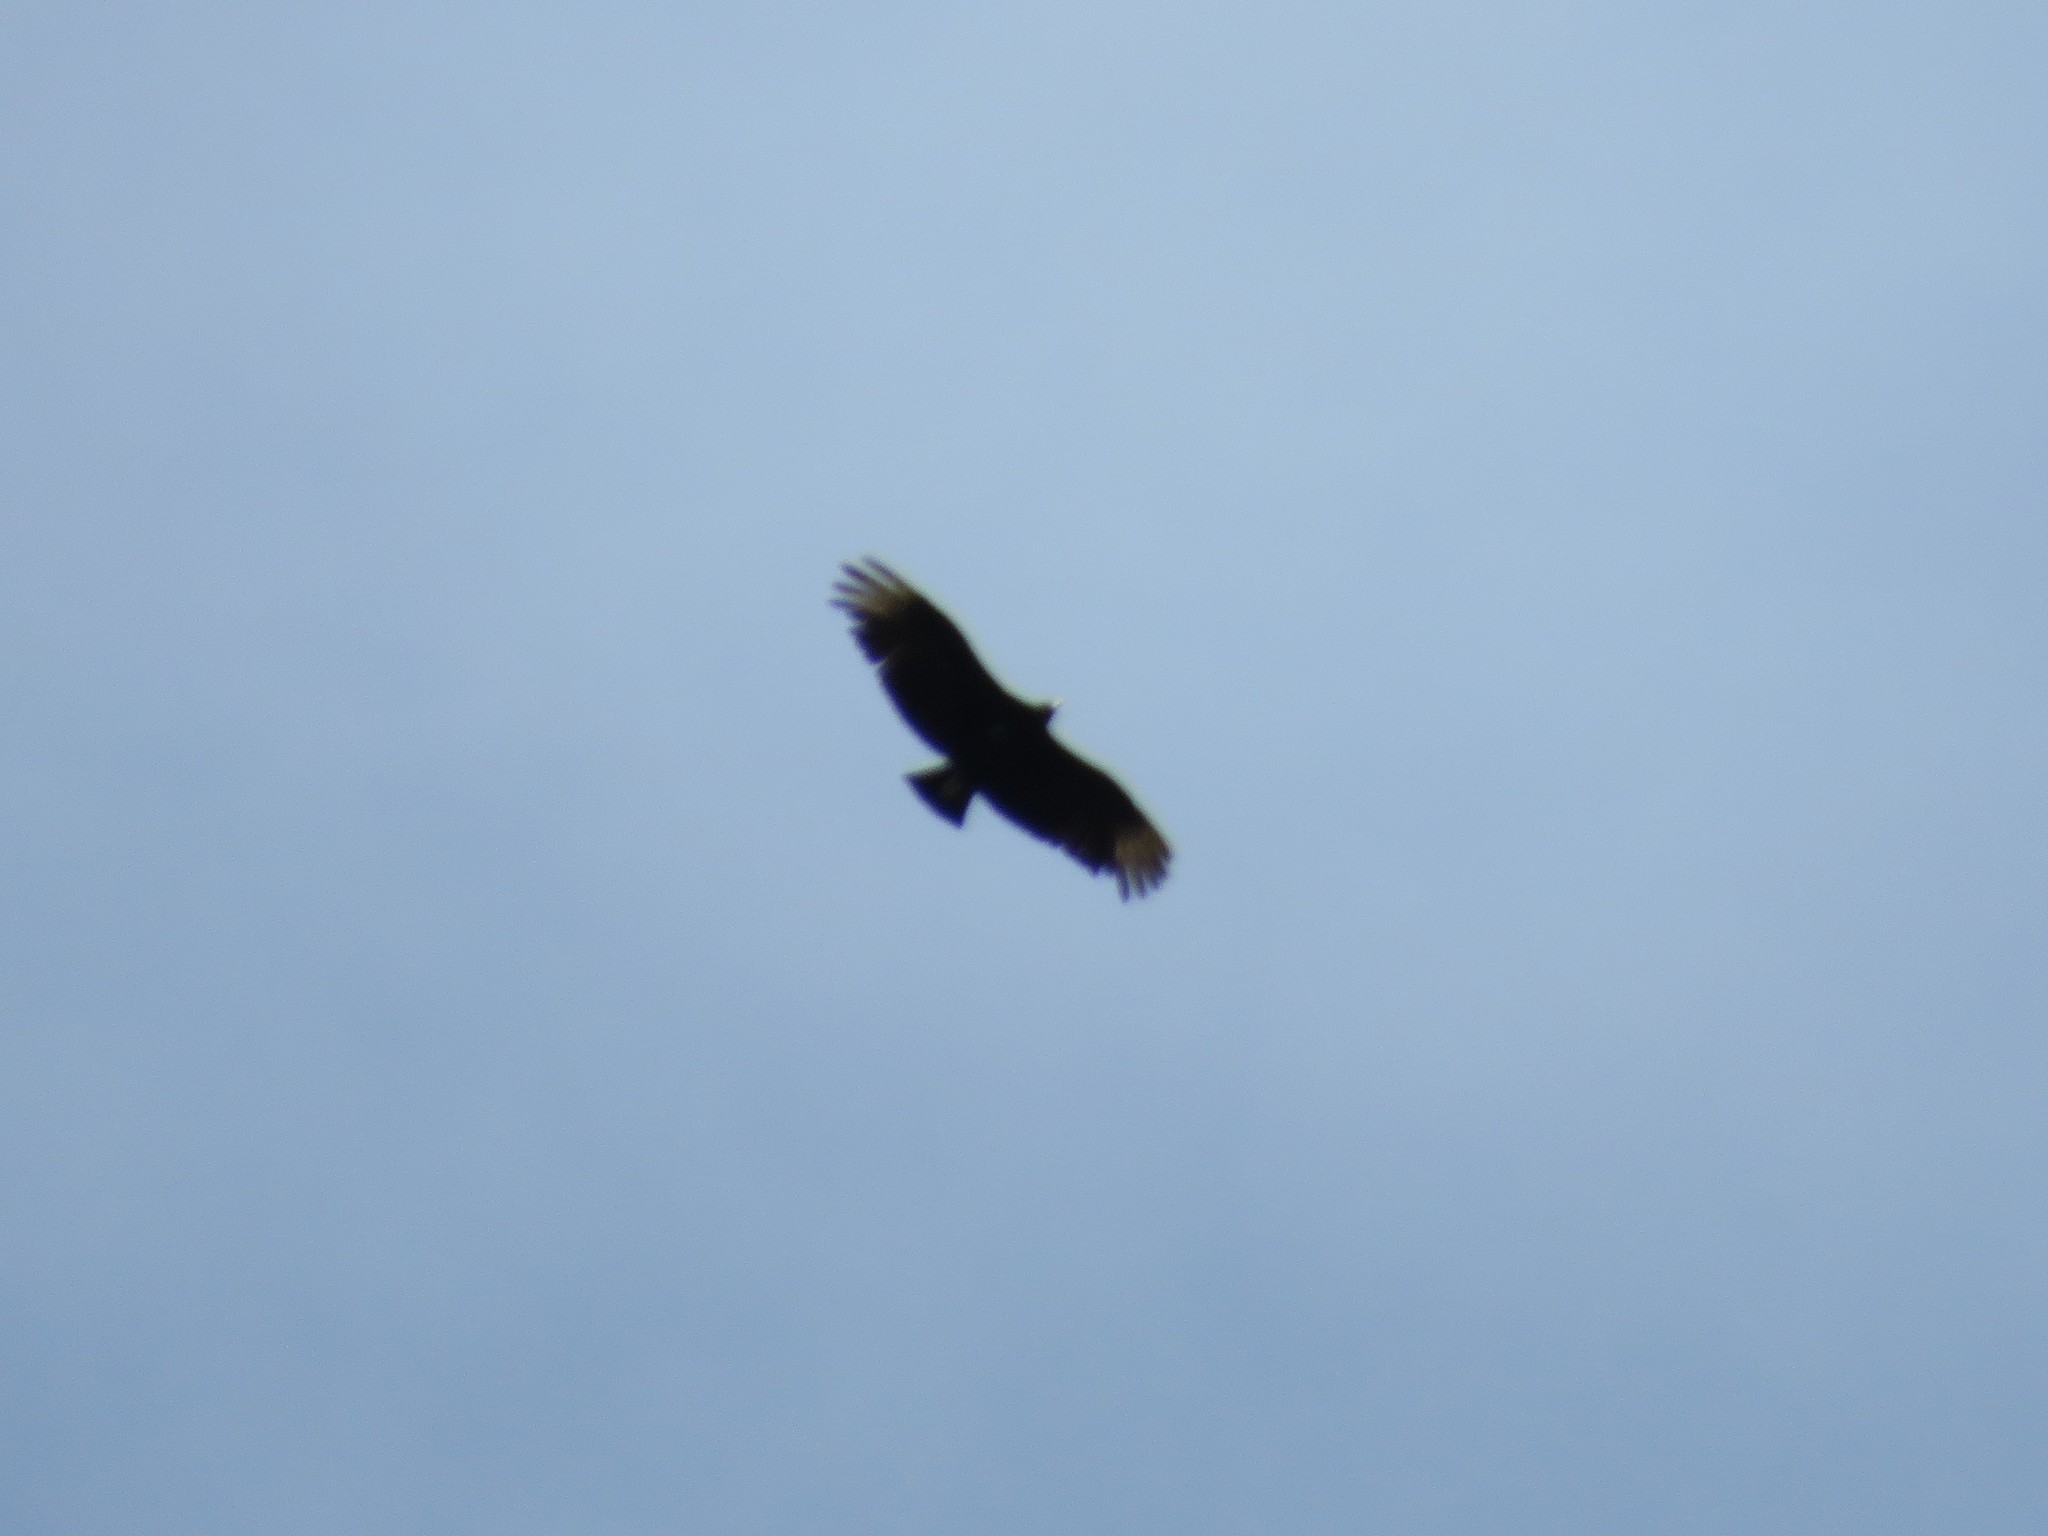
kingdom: Animalia
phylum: Chordata
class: Aves
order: Accipitriformes
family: Cathartidae
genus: Coragyps
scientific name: Coragyps atratus
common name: Black vulture
